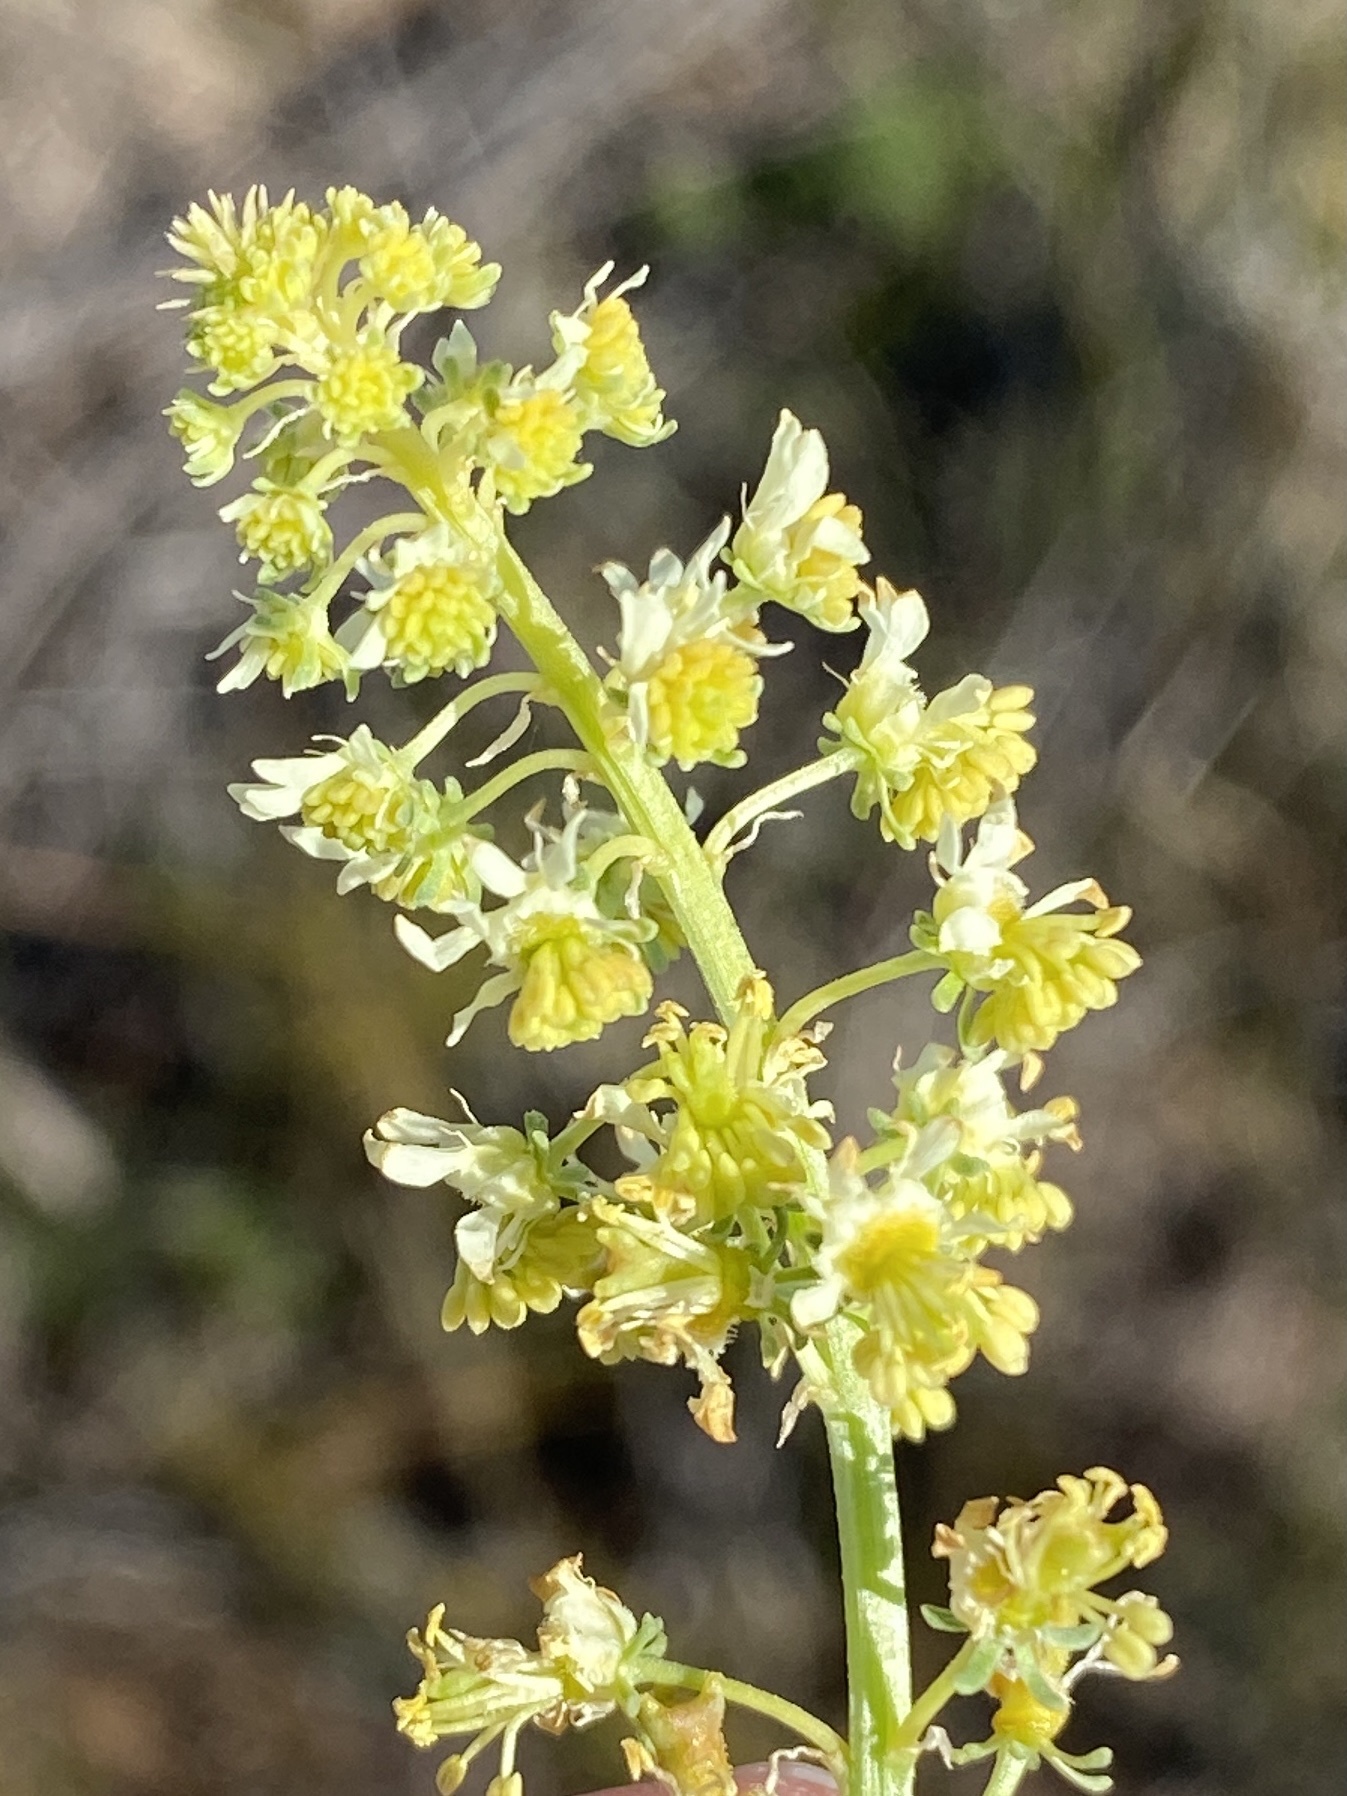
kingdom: Plantae
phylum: Tracheophyta
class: Magnoliopsida
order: Brassicales
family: Resedaceae
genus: Reseda
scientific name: Reseda lutea
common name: Wild mignonette
